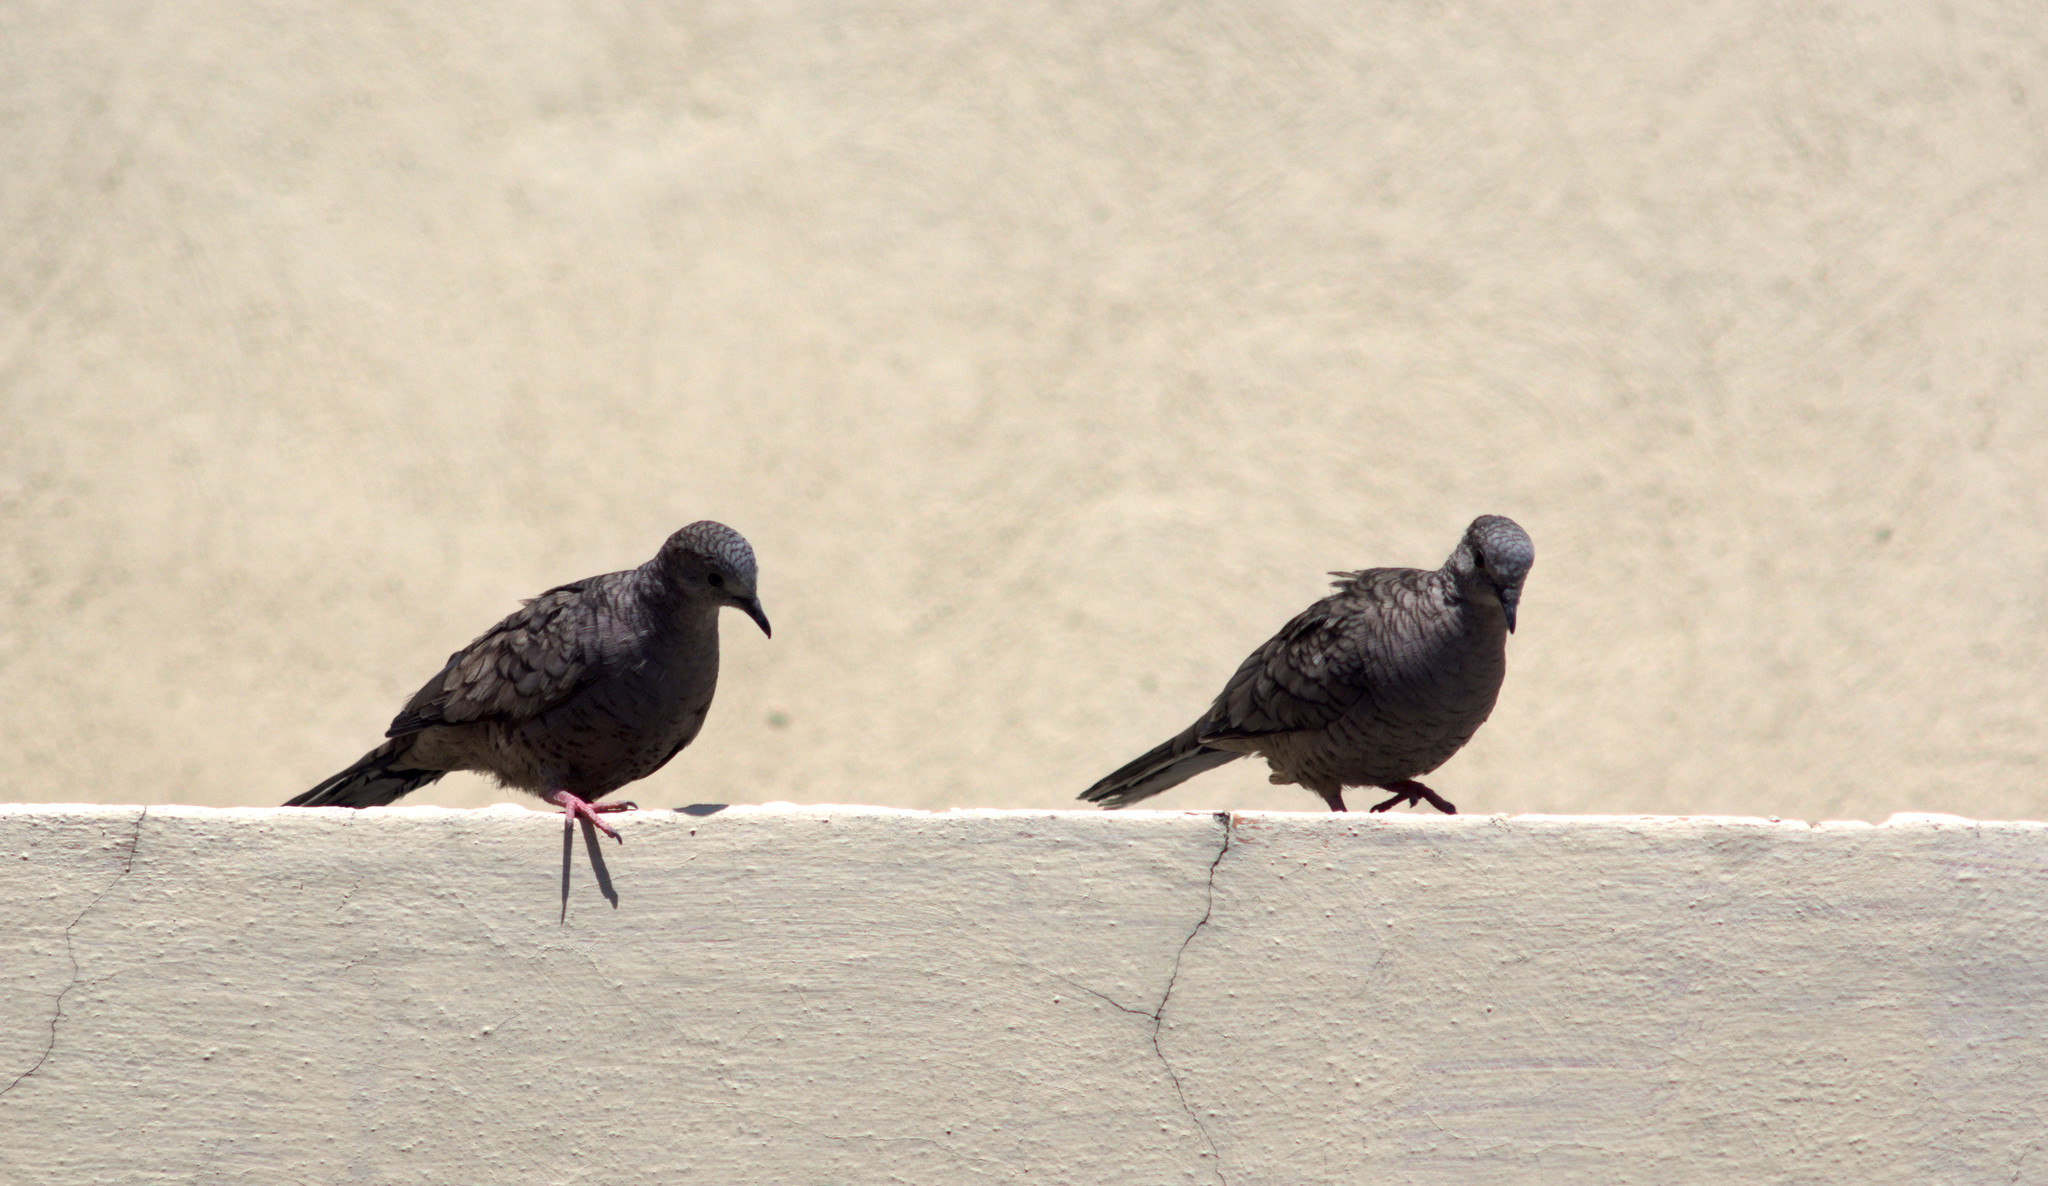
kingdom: Animalia
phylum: Chordata
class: Aves
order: Columbiformes
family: Columbidae
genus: Columbina
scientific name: Columbina inca
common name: Inca dove
